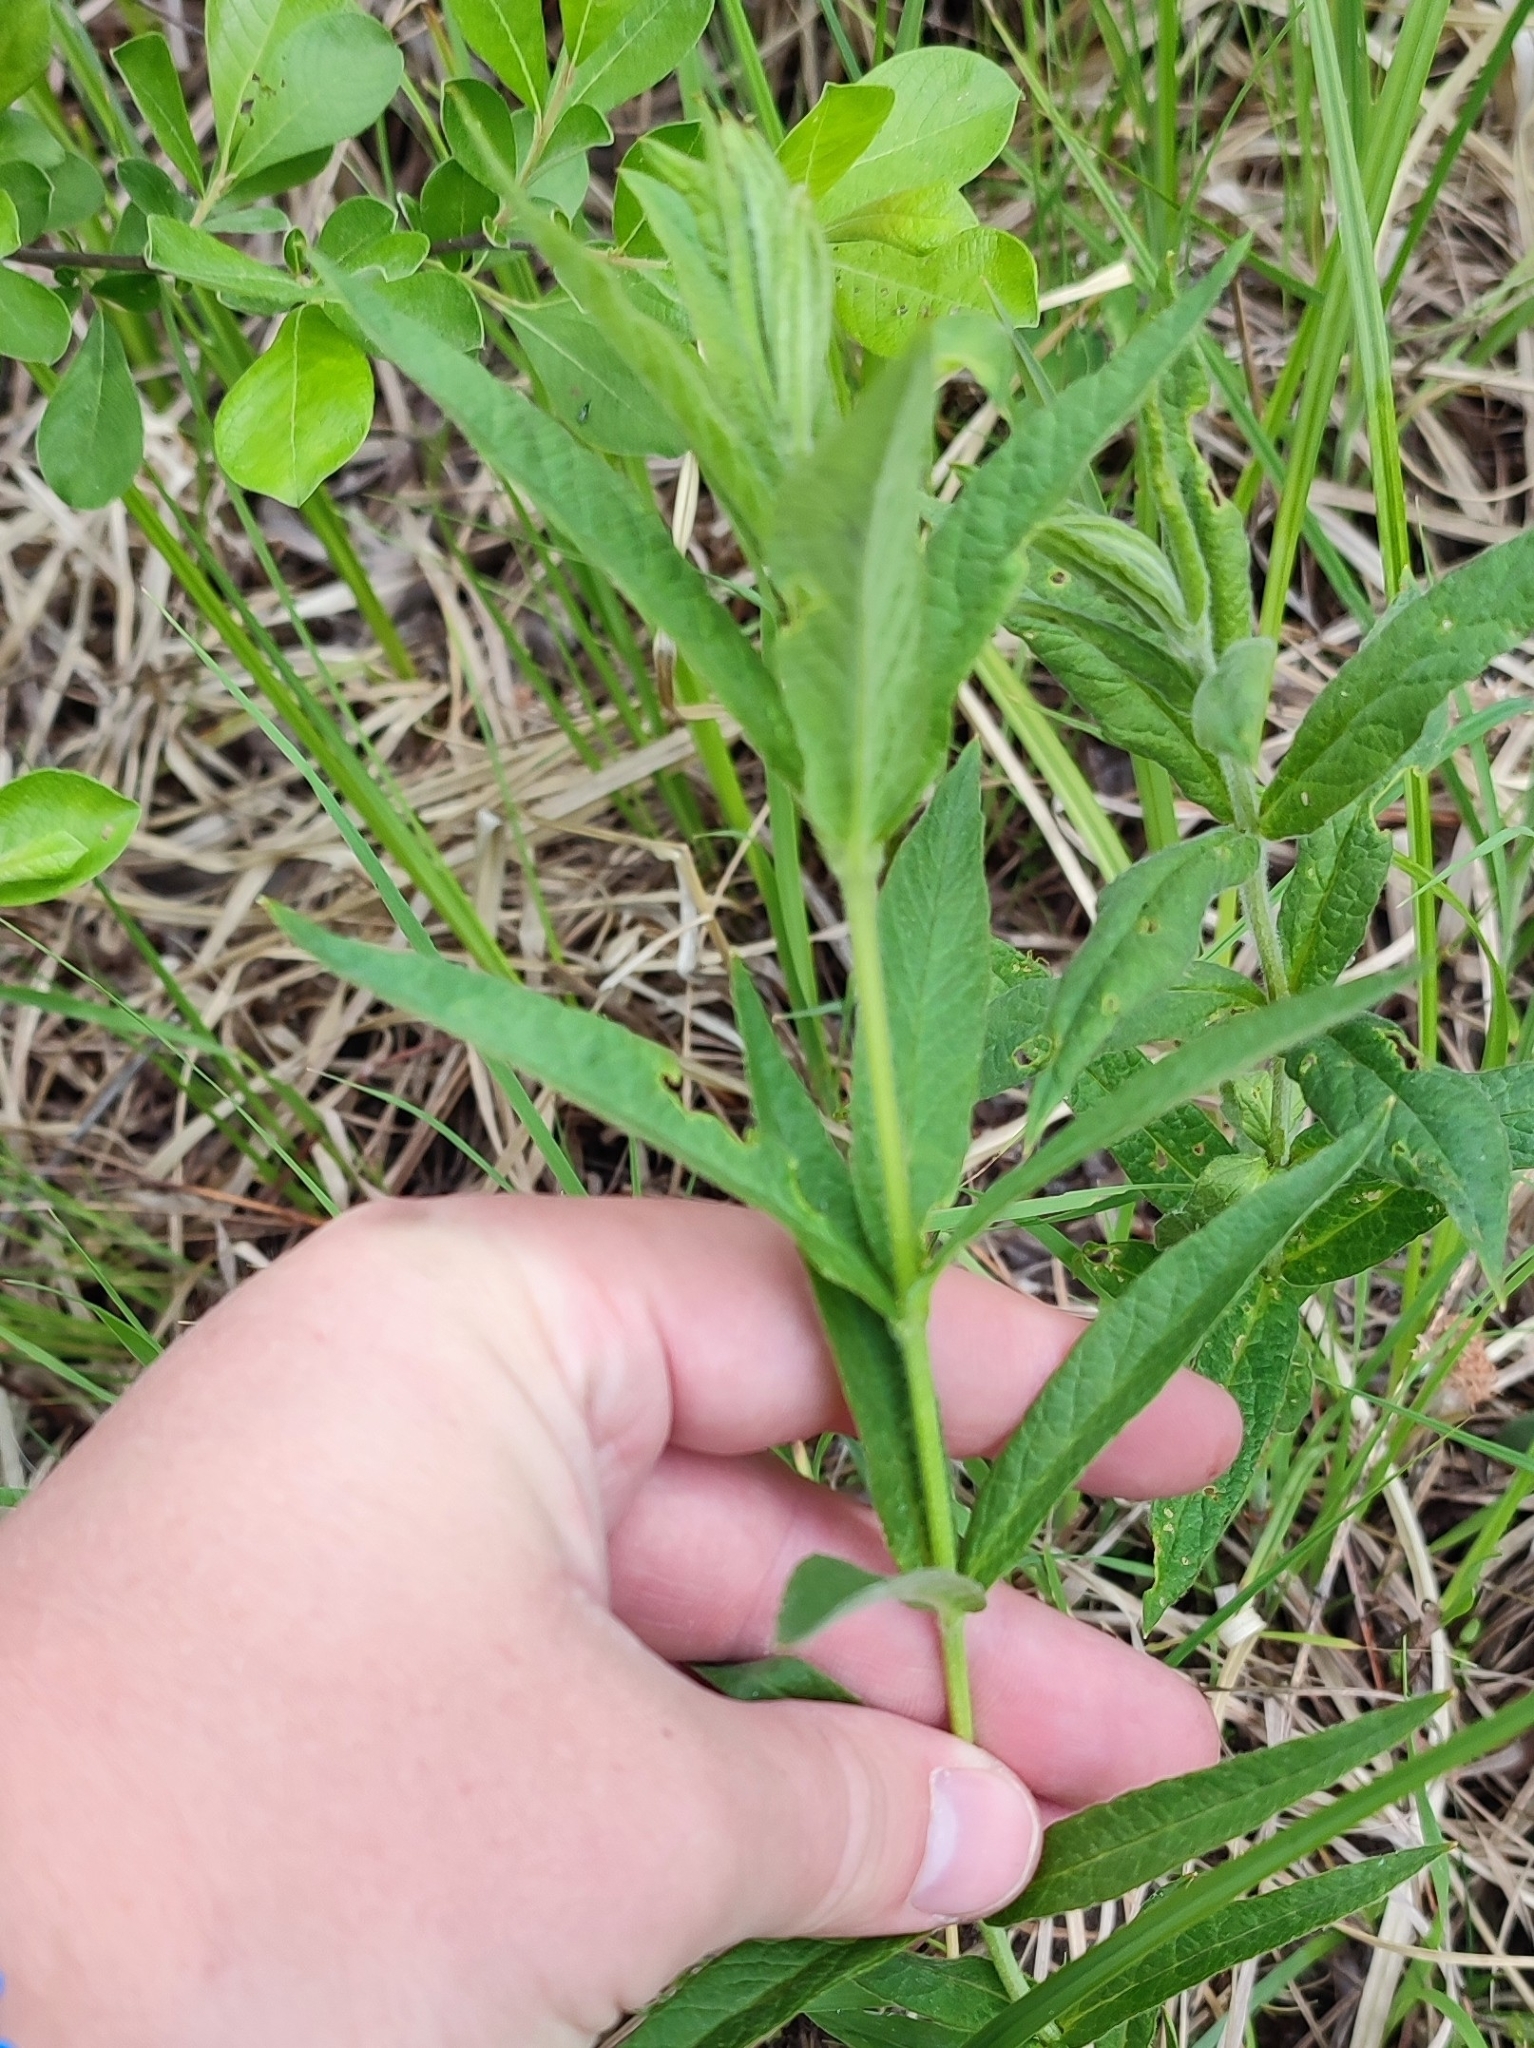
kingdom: Plantae
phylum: Tracheophyta
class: Magnoliopsida
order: Ericales
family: Primulaceae
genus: Lysimachia
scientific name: Lysimachia vulgaris
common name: Yellow loosestrife
